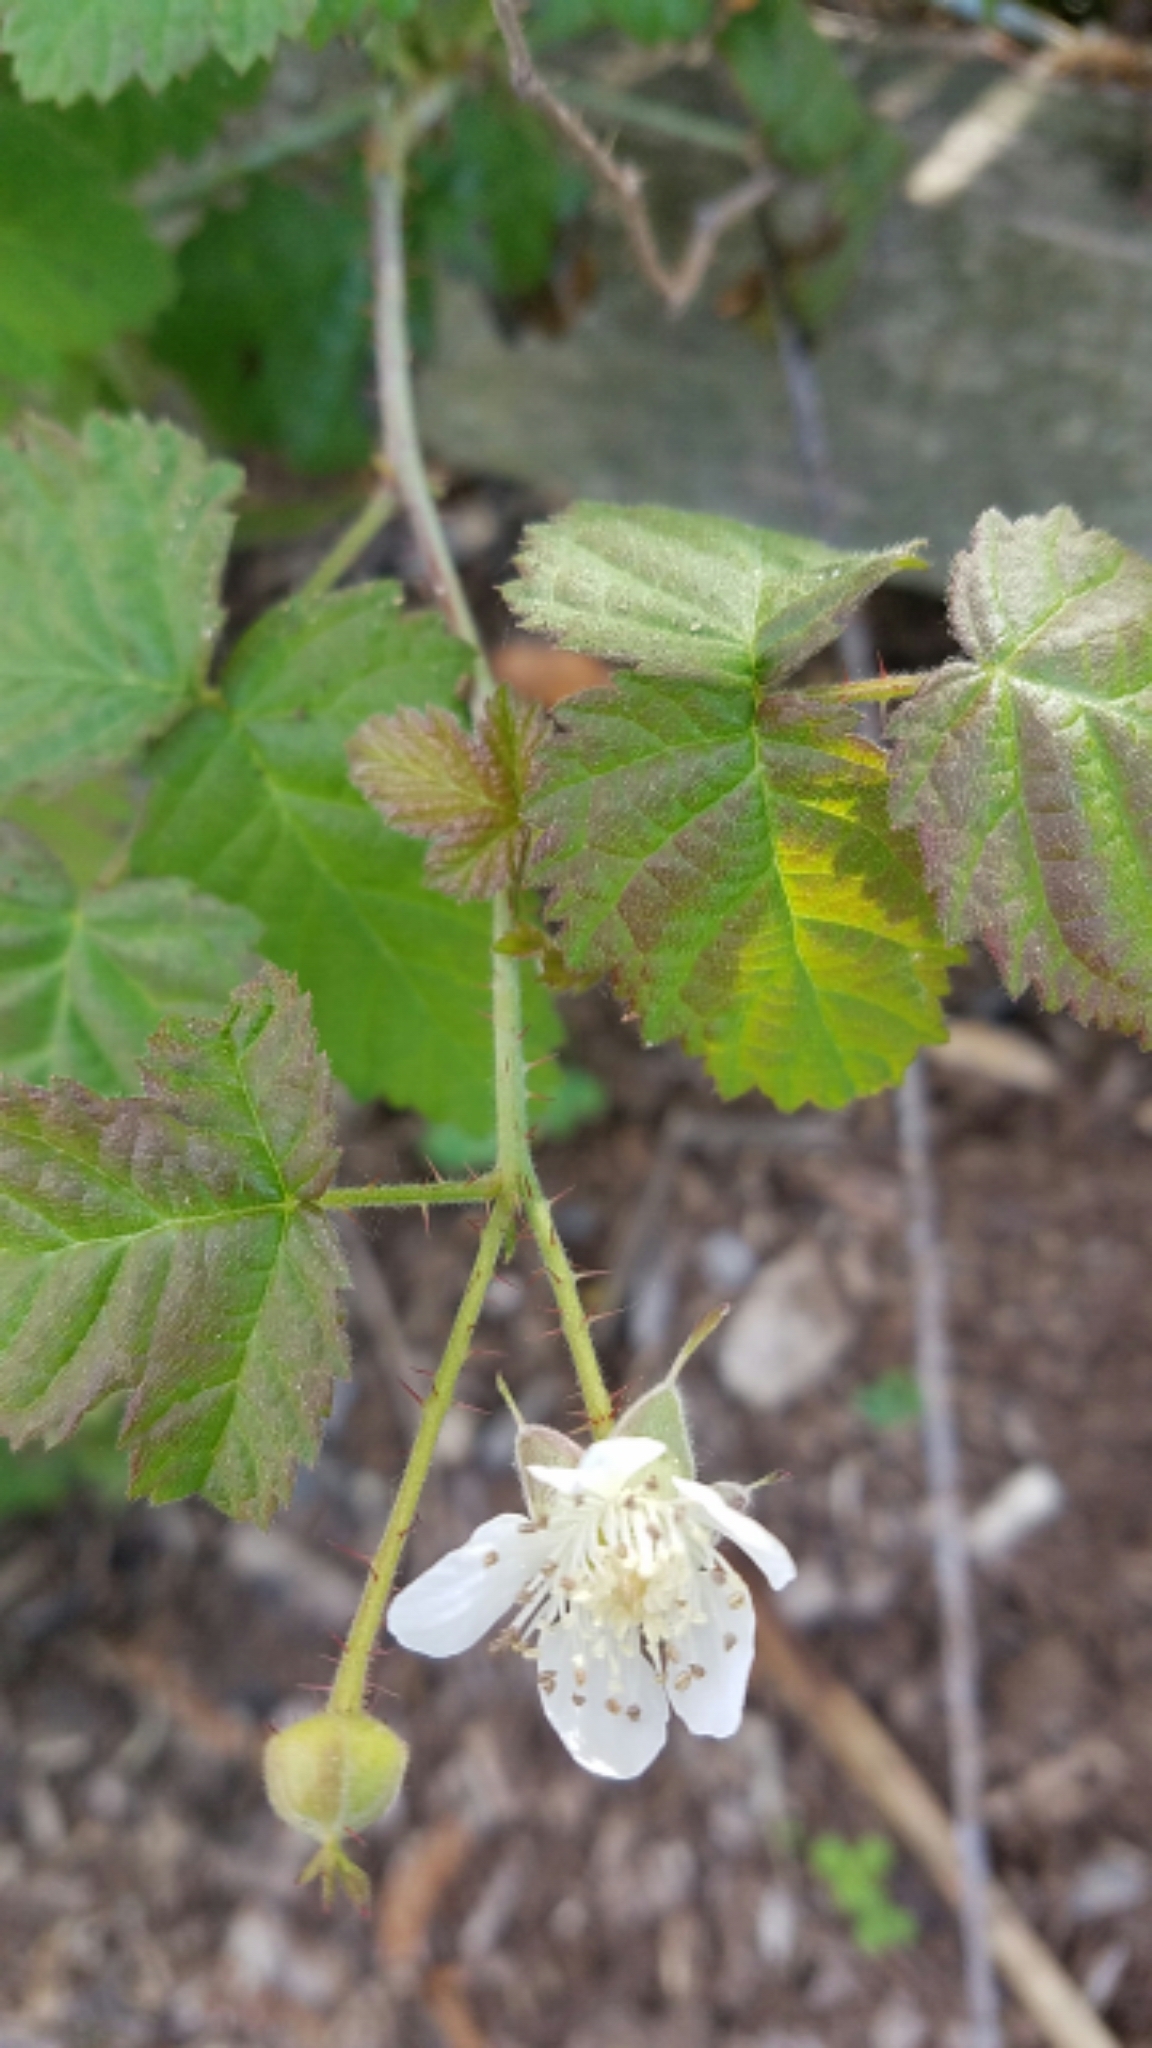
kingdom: Plantae
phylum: Tracheophyta
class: Magnoliopsida
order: Rosales
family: Rosaceae
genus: Rubus
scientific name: Rubus ursinus
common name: Pacific blackberry
